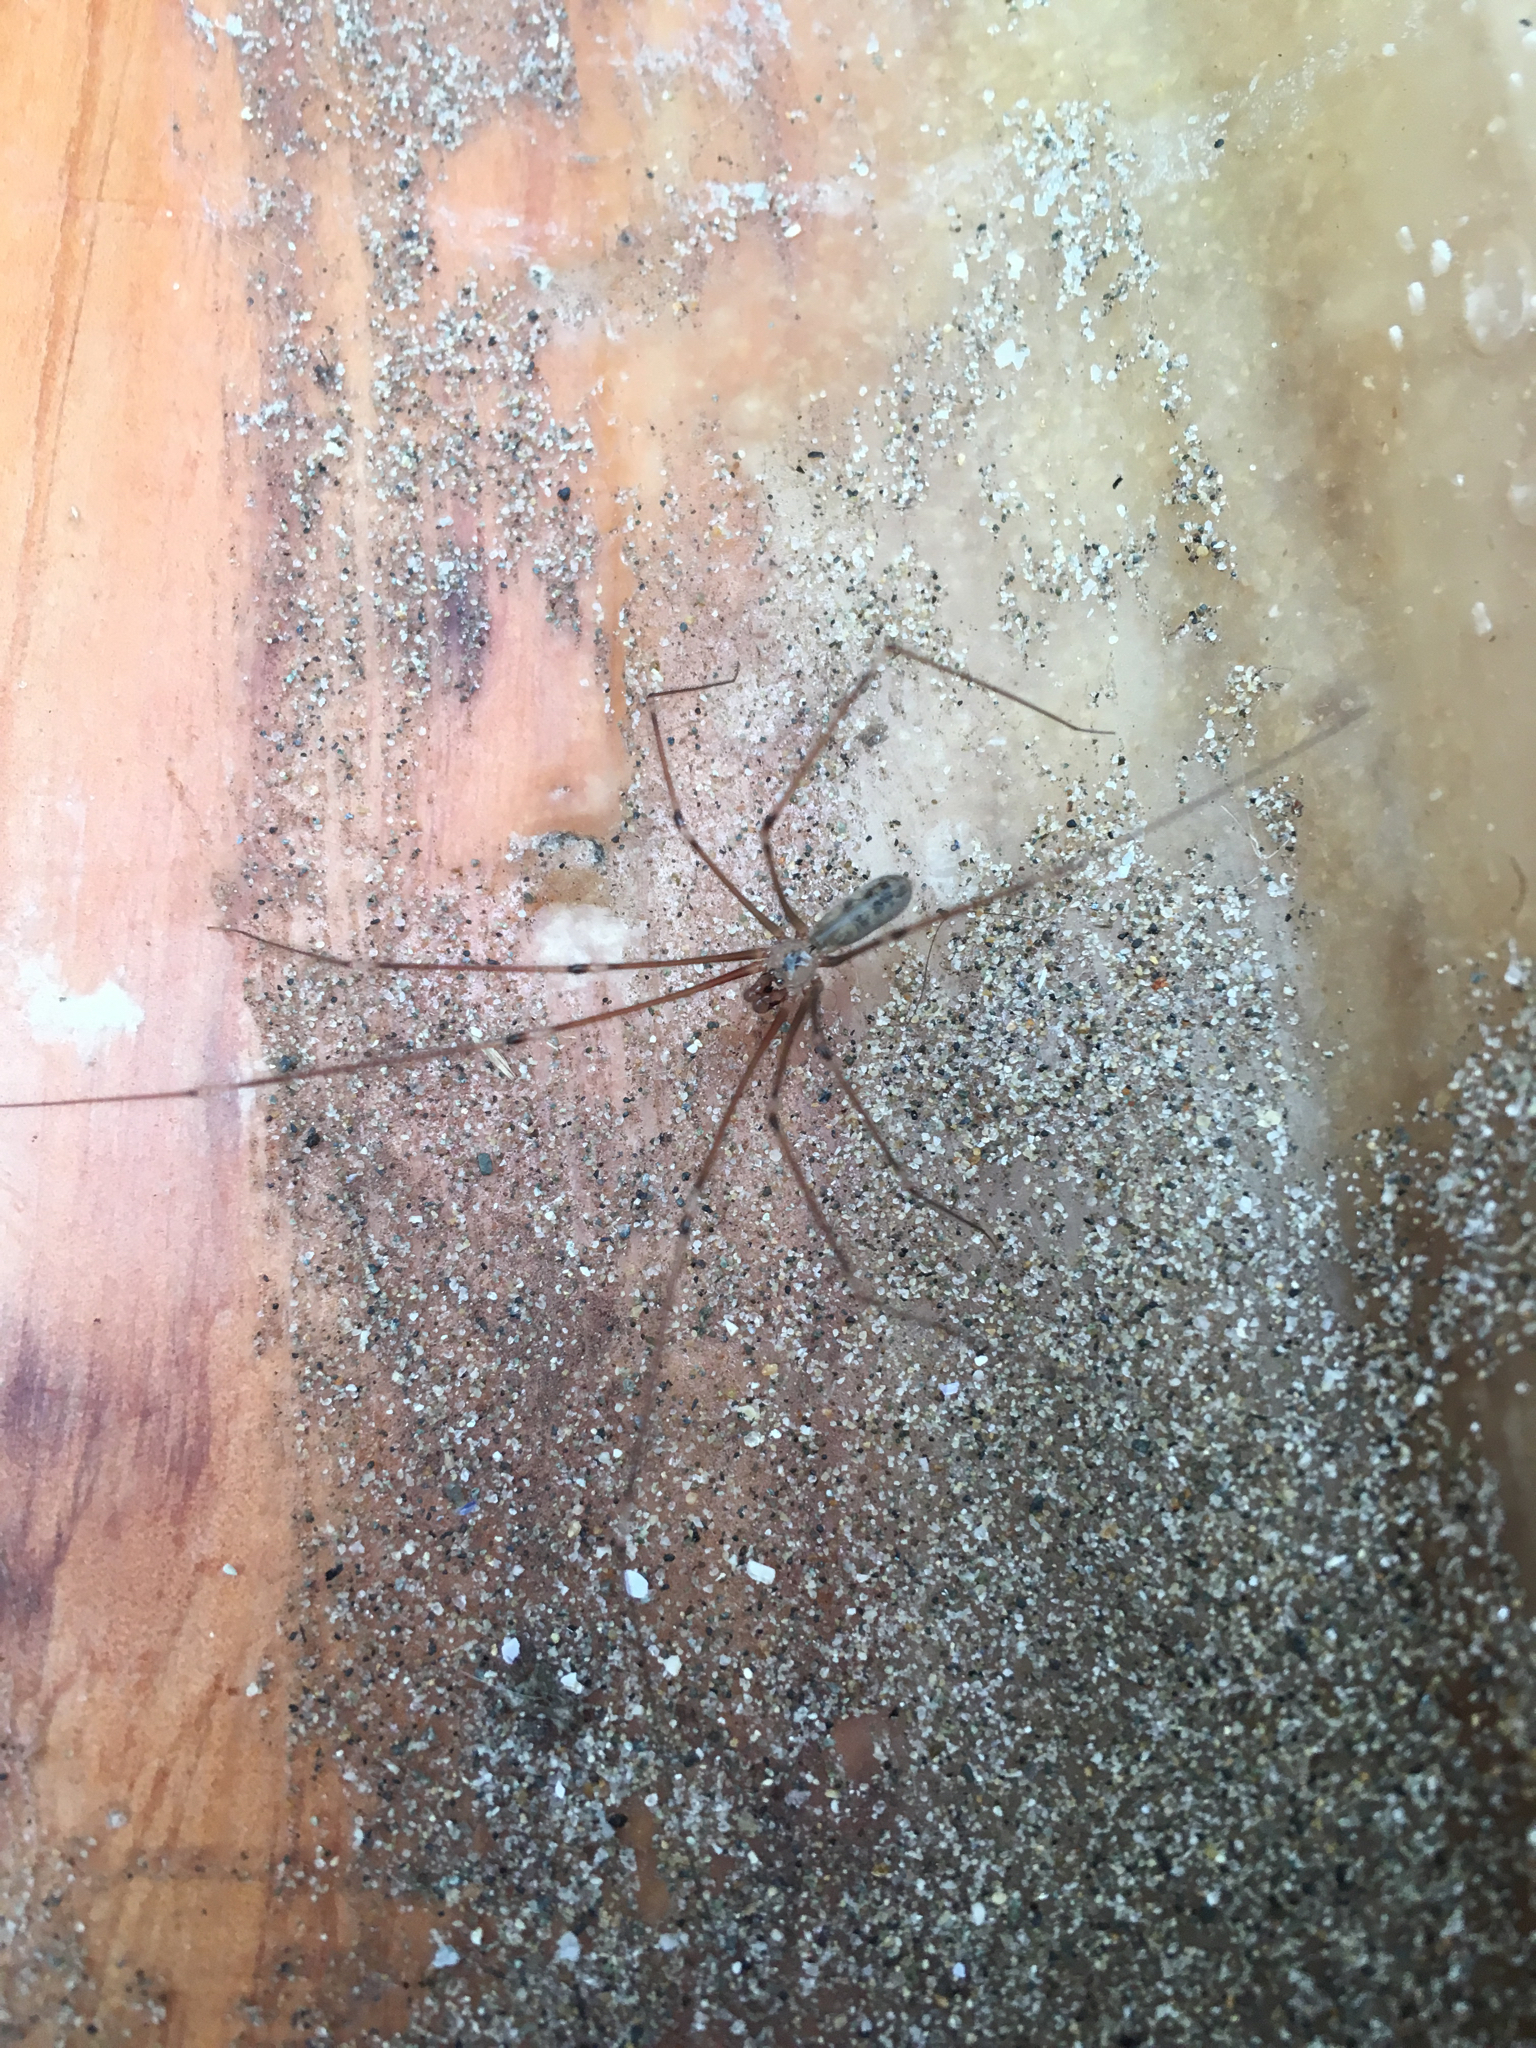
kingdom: Animalia
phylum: Arthropoda
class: Arachnida
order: Araneae
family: Pholcidae
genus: Pholcus
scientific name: Pholcus phalangioides
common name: Longbodied cellar spider
